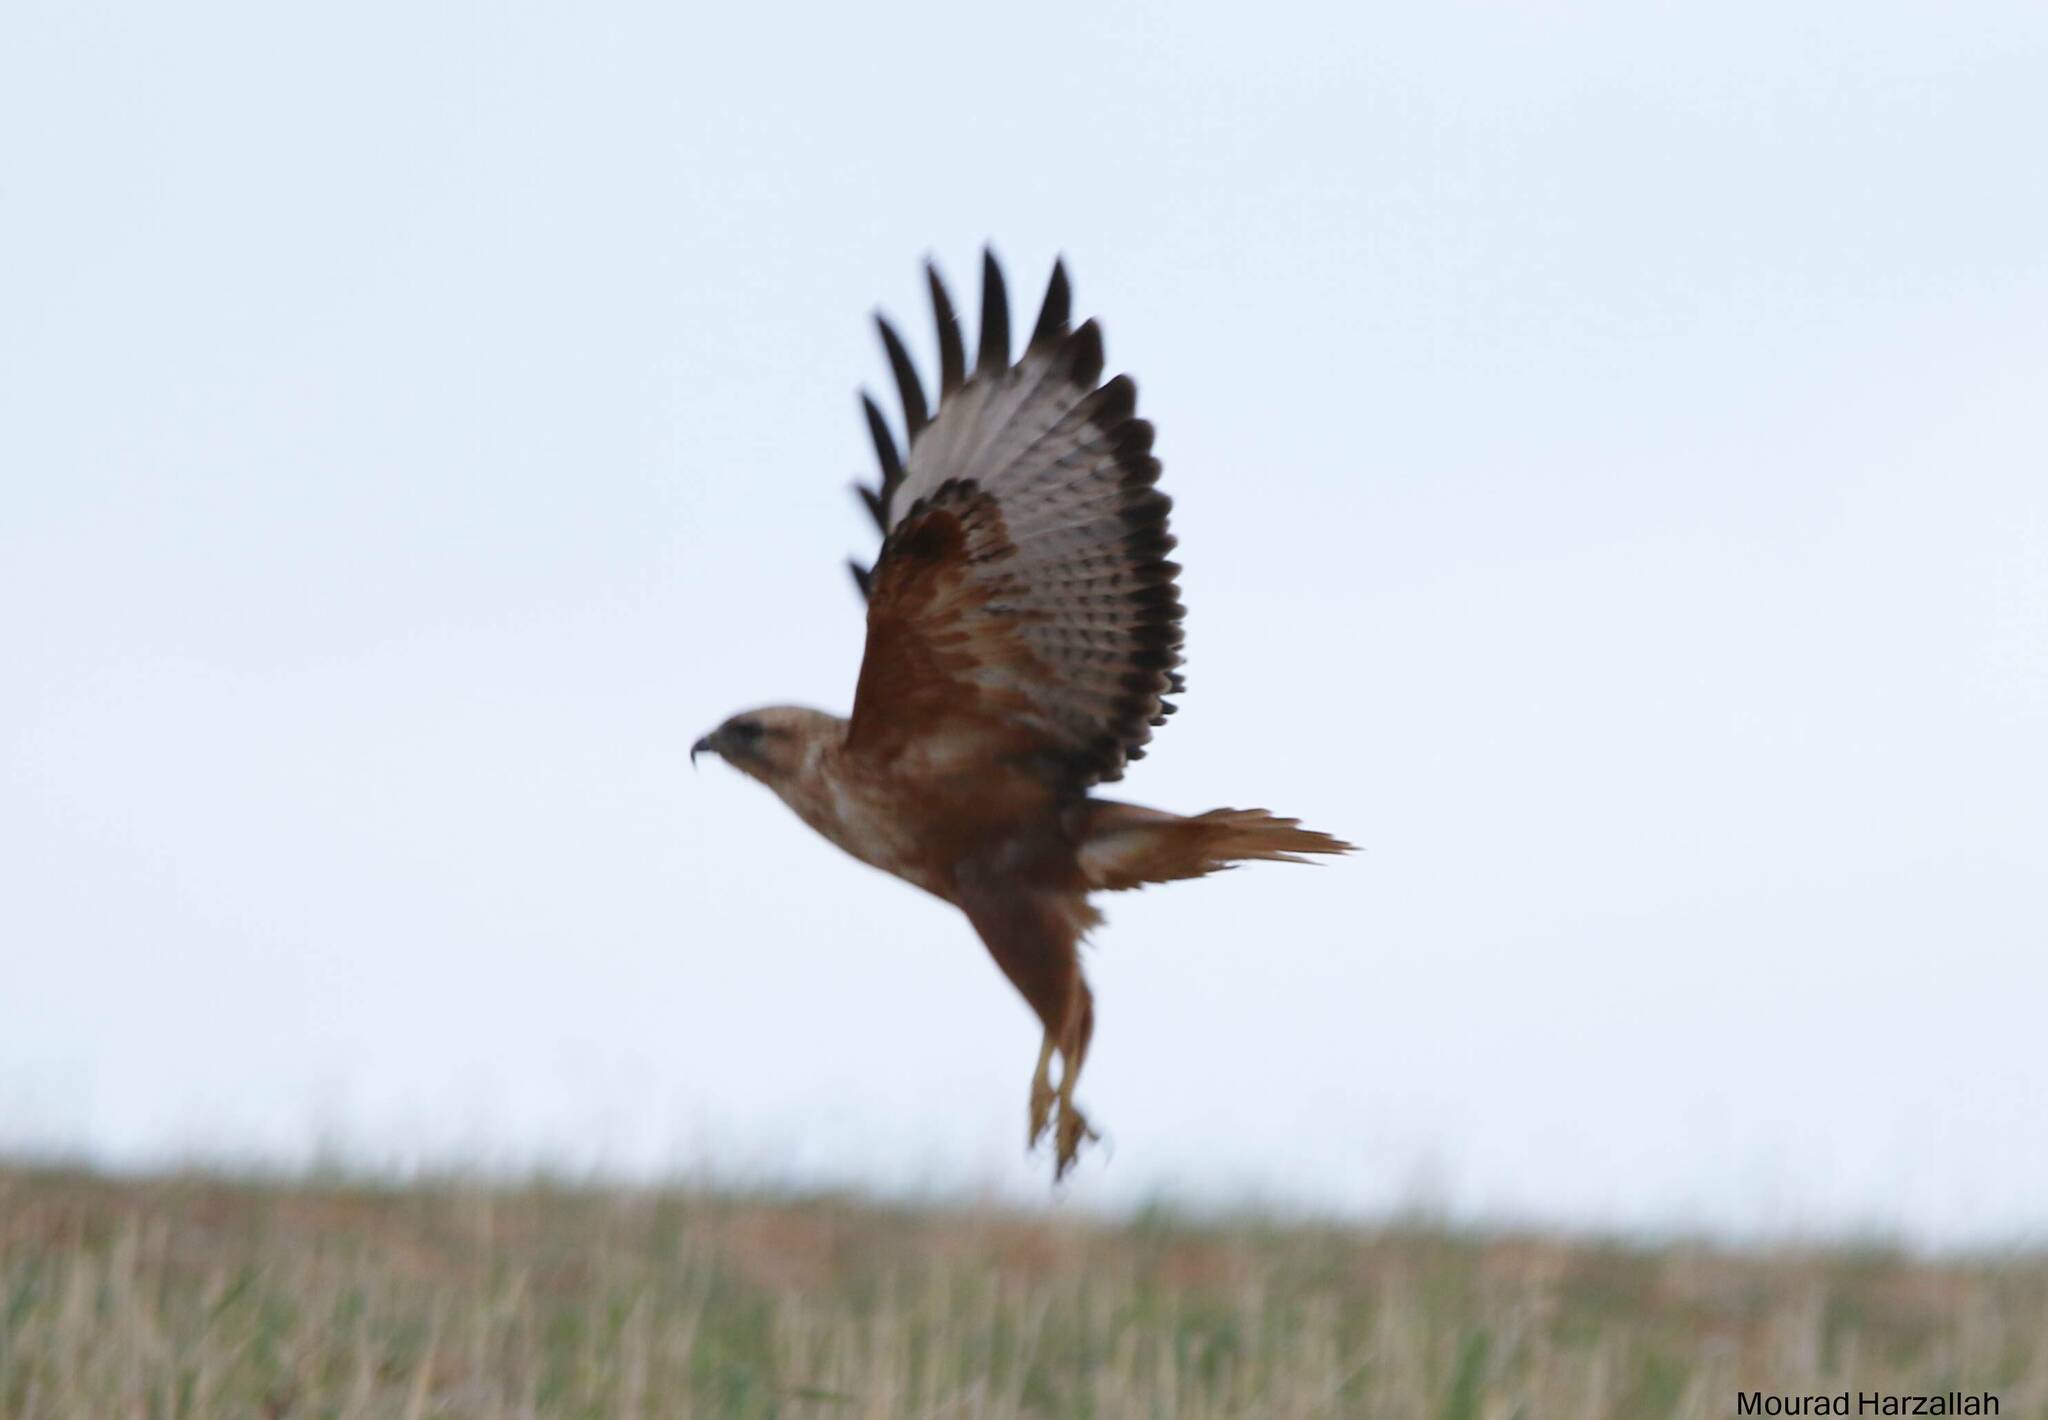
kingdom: Animalia
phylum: Chordata
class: Aves
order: Accipitriformes
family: Accipitridae
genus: Buteo
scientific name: Buteo rufinus
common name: Long-legged buzzard
